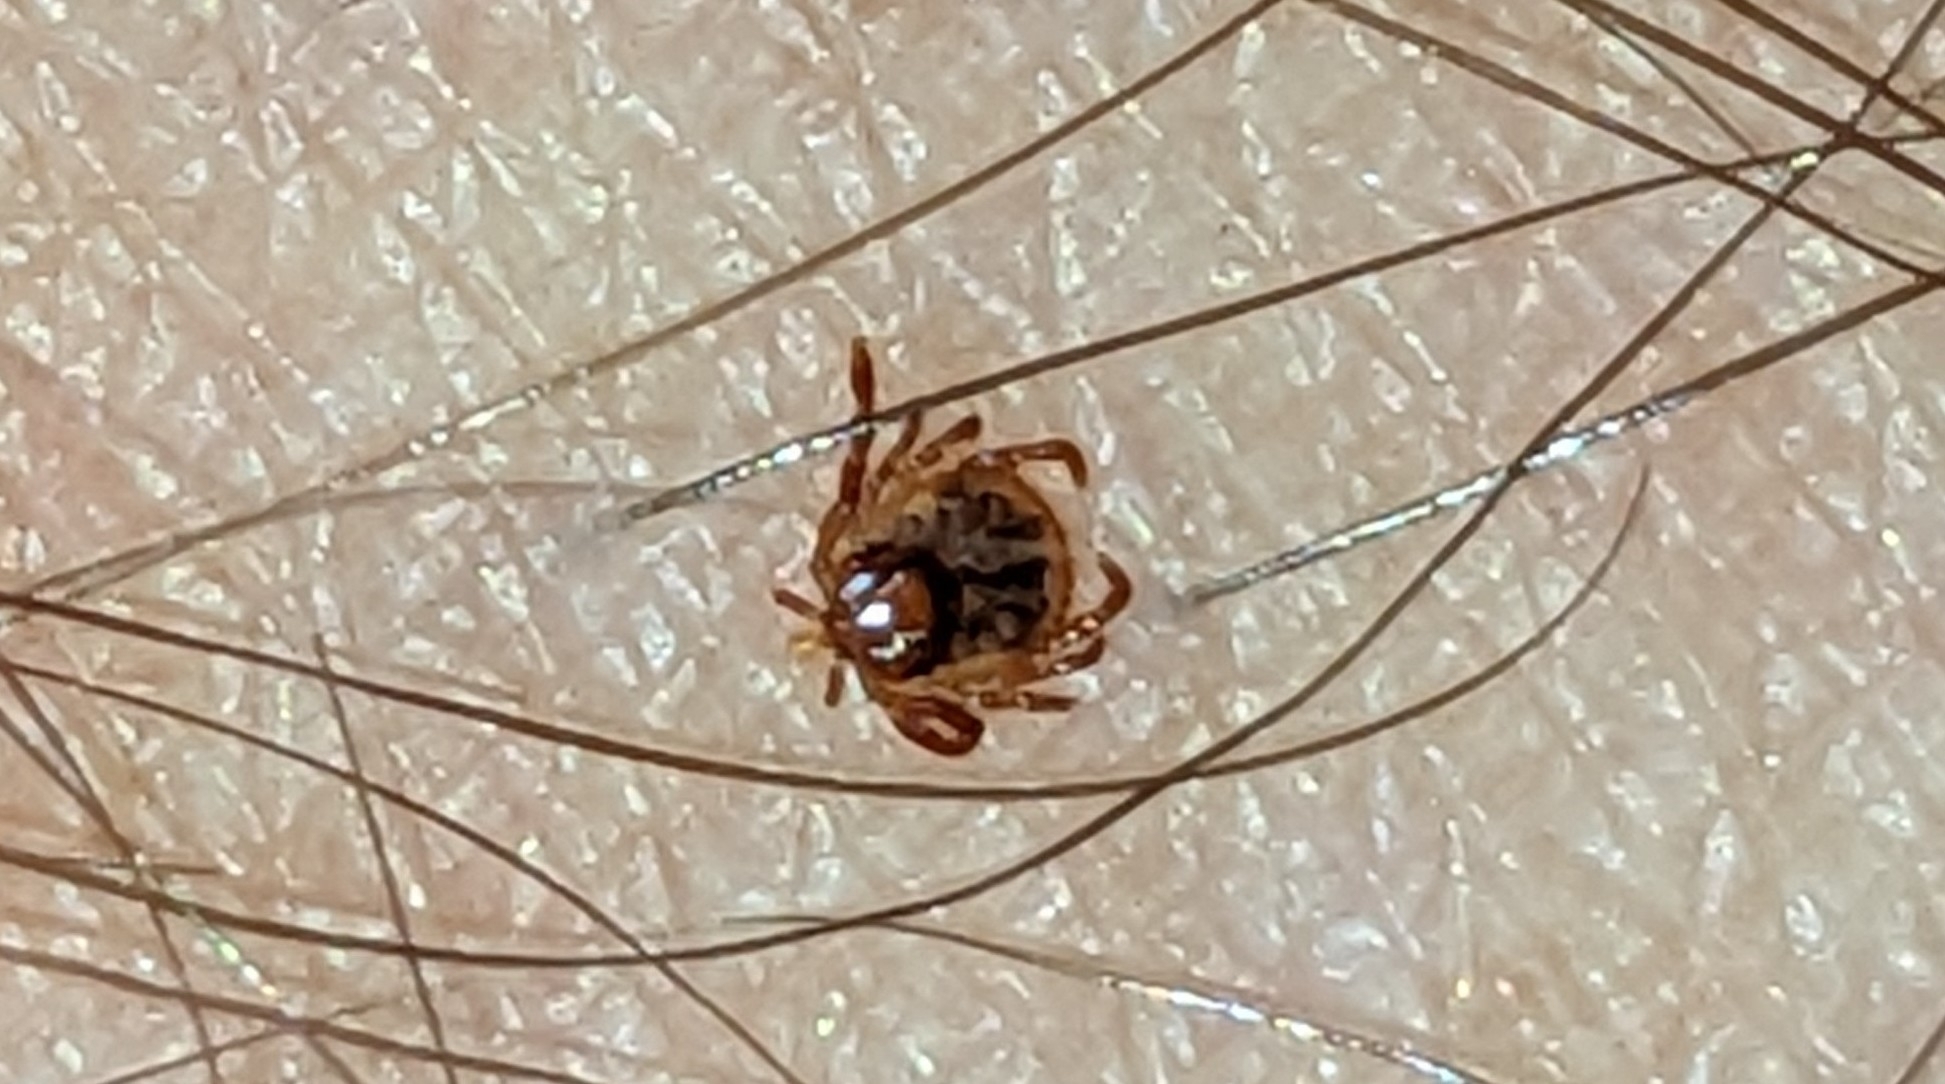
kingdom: Animalia
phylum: Arthropoda
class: Arachnida
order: Ixodida
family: Ixodidae
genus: Amblyomma
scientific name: Amblyomma americanum
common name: Lone star tick
